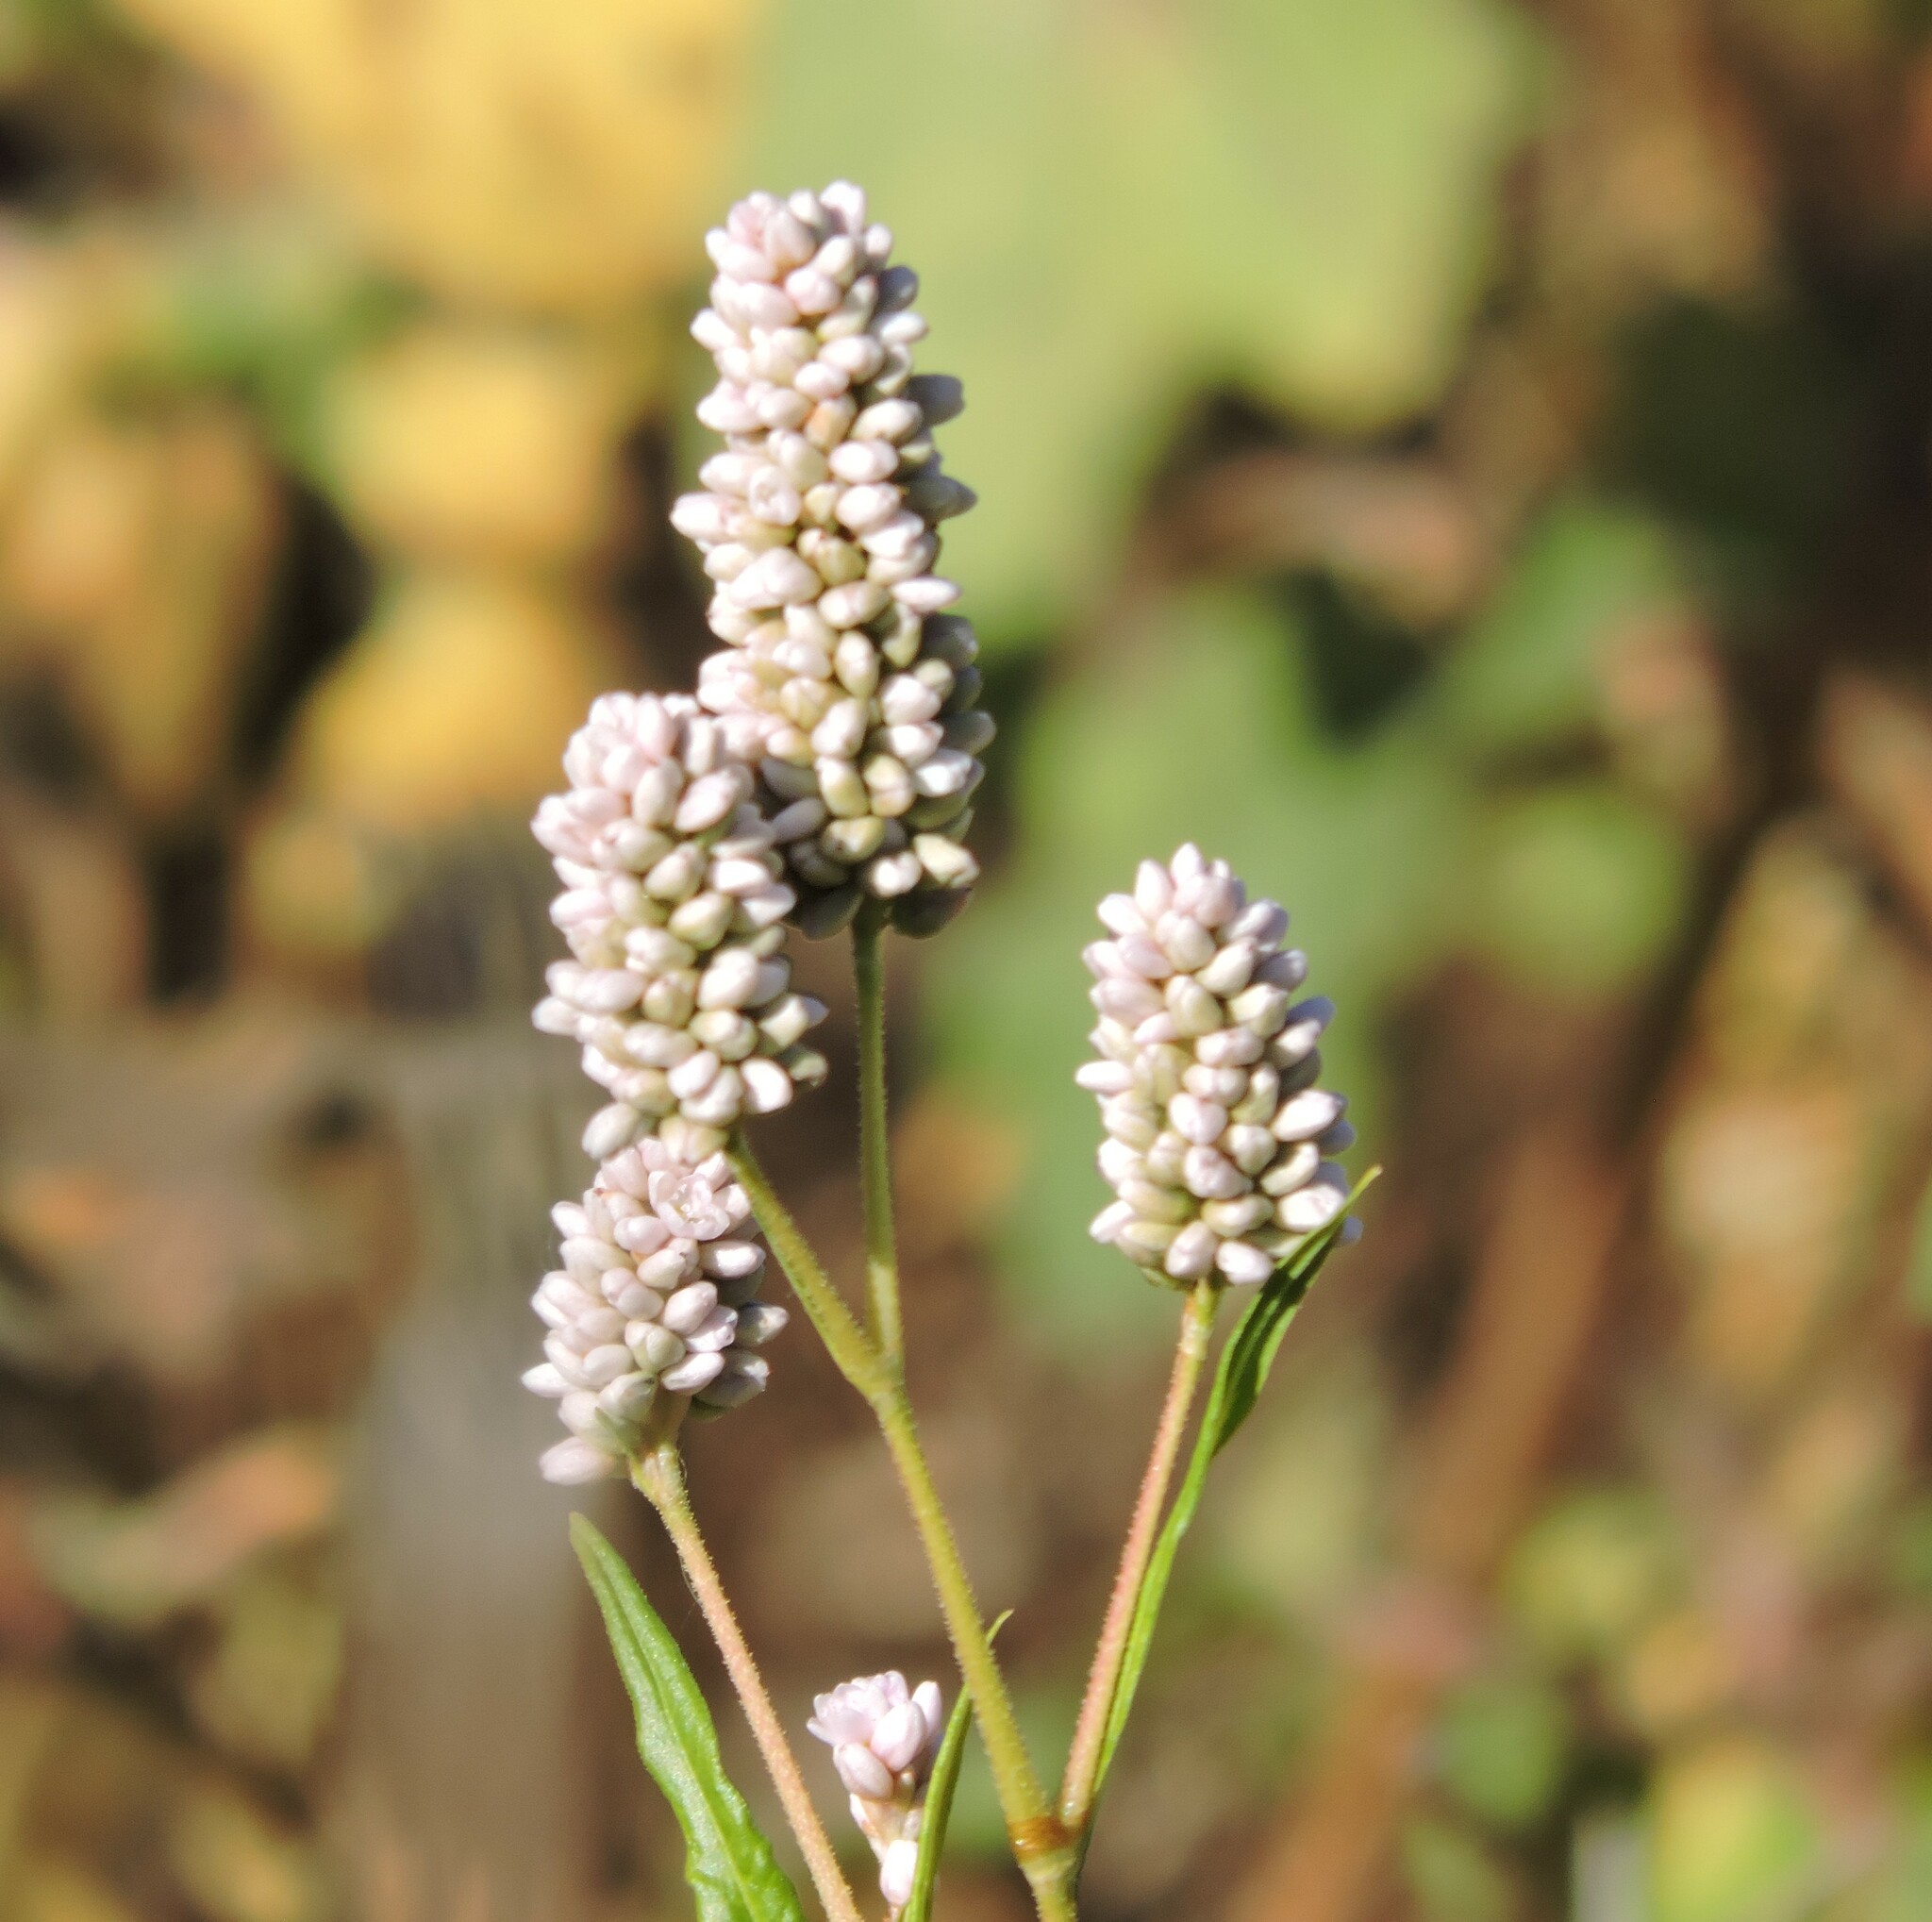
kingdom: Plantae
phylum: Tracheophyta
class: Magnoliopsida
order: Caryophyllales
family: Polygonaceae
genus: Persicaria
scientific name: Persicaria pensylvanica
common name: Pinkweed
